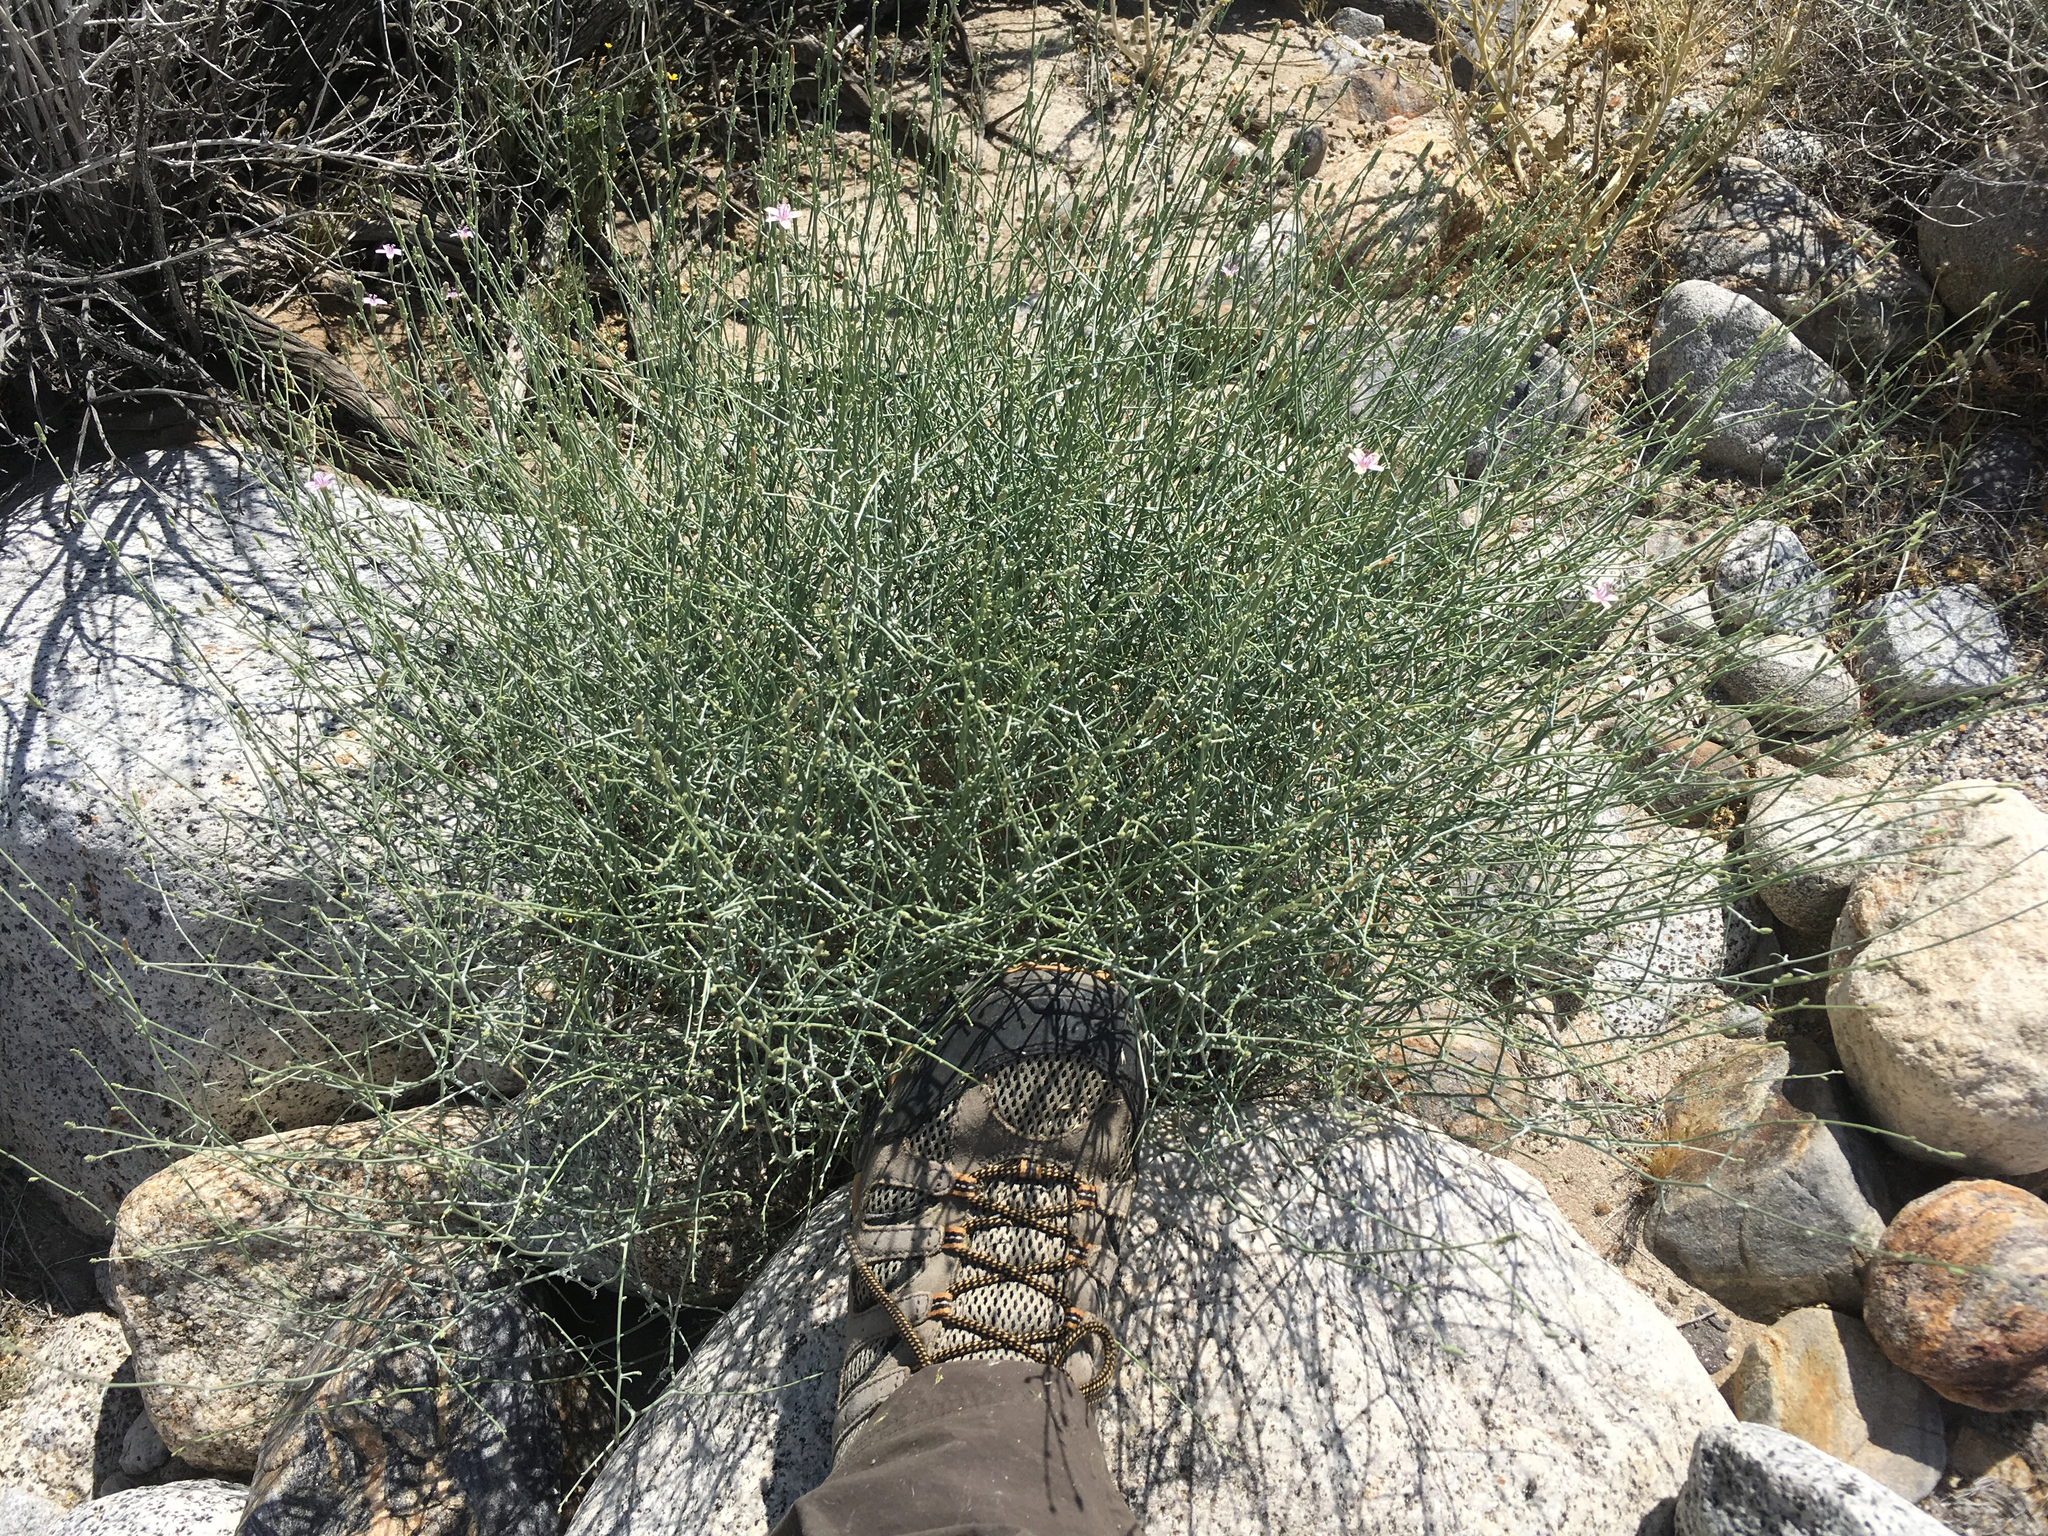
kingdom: Plantae
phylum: Tracheophyta
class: Magnoliopsida
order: Asterales
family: Asteraceae
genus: Stephanomeria
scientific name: Stephanomeria pauciflora
